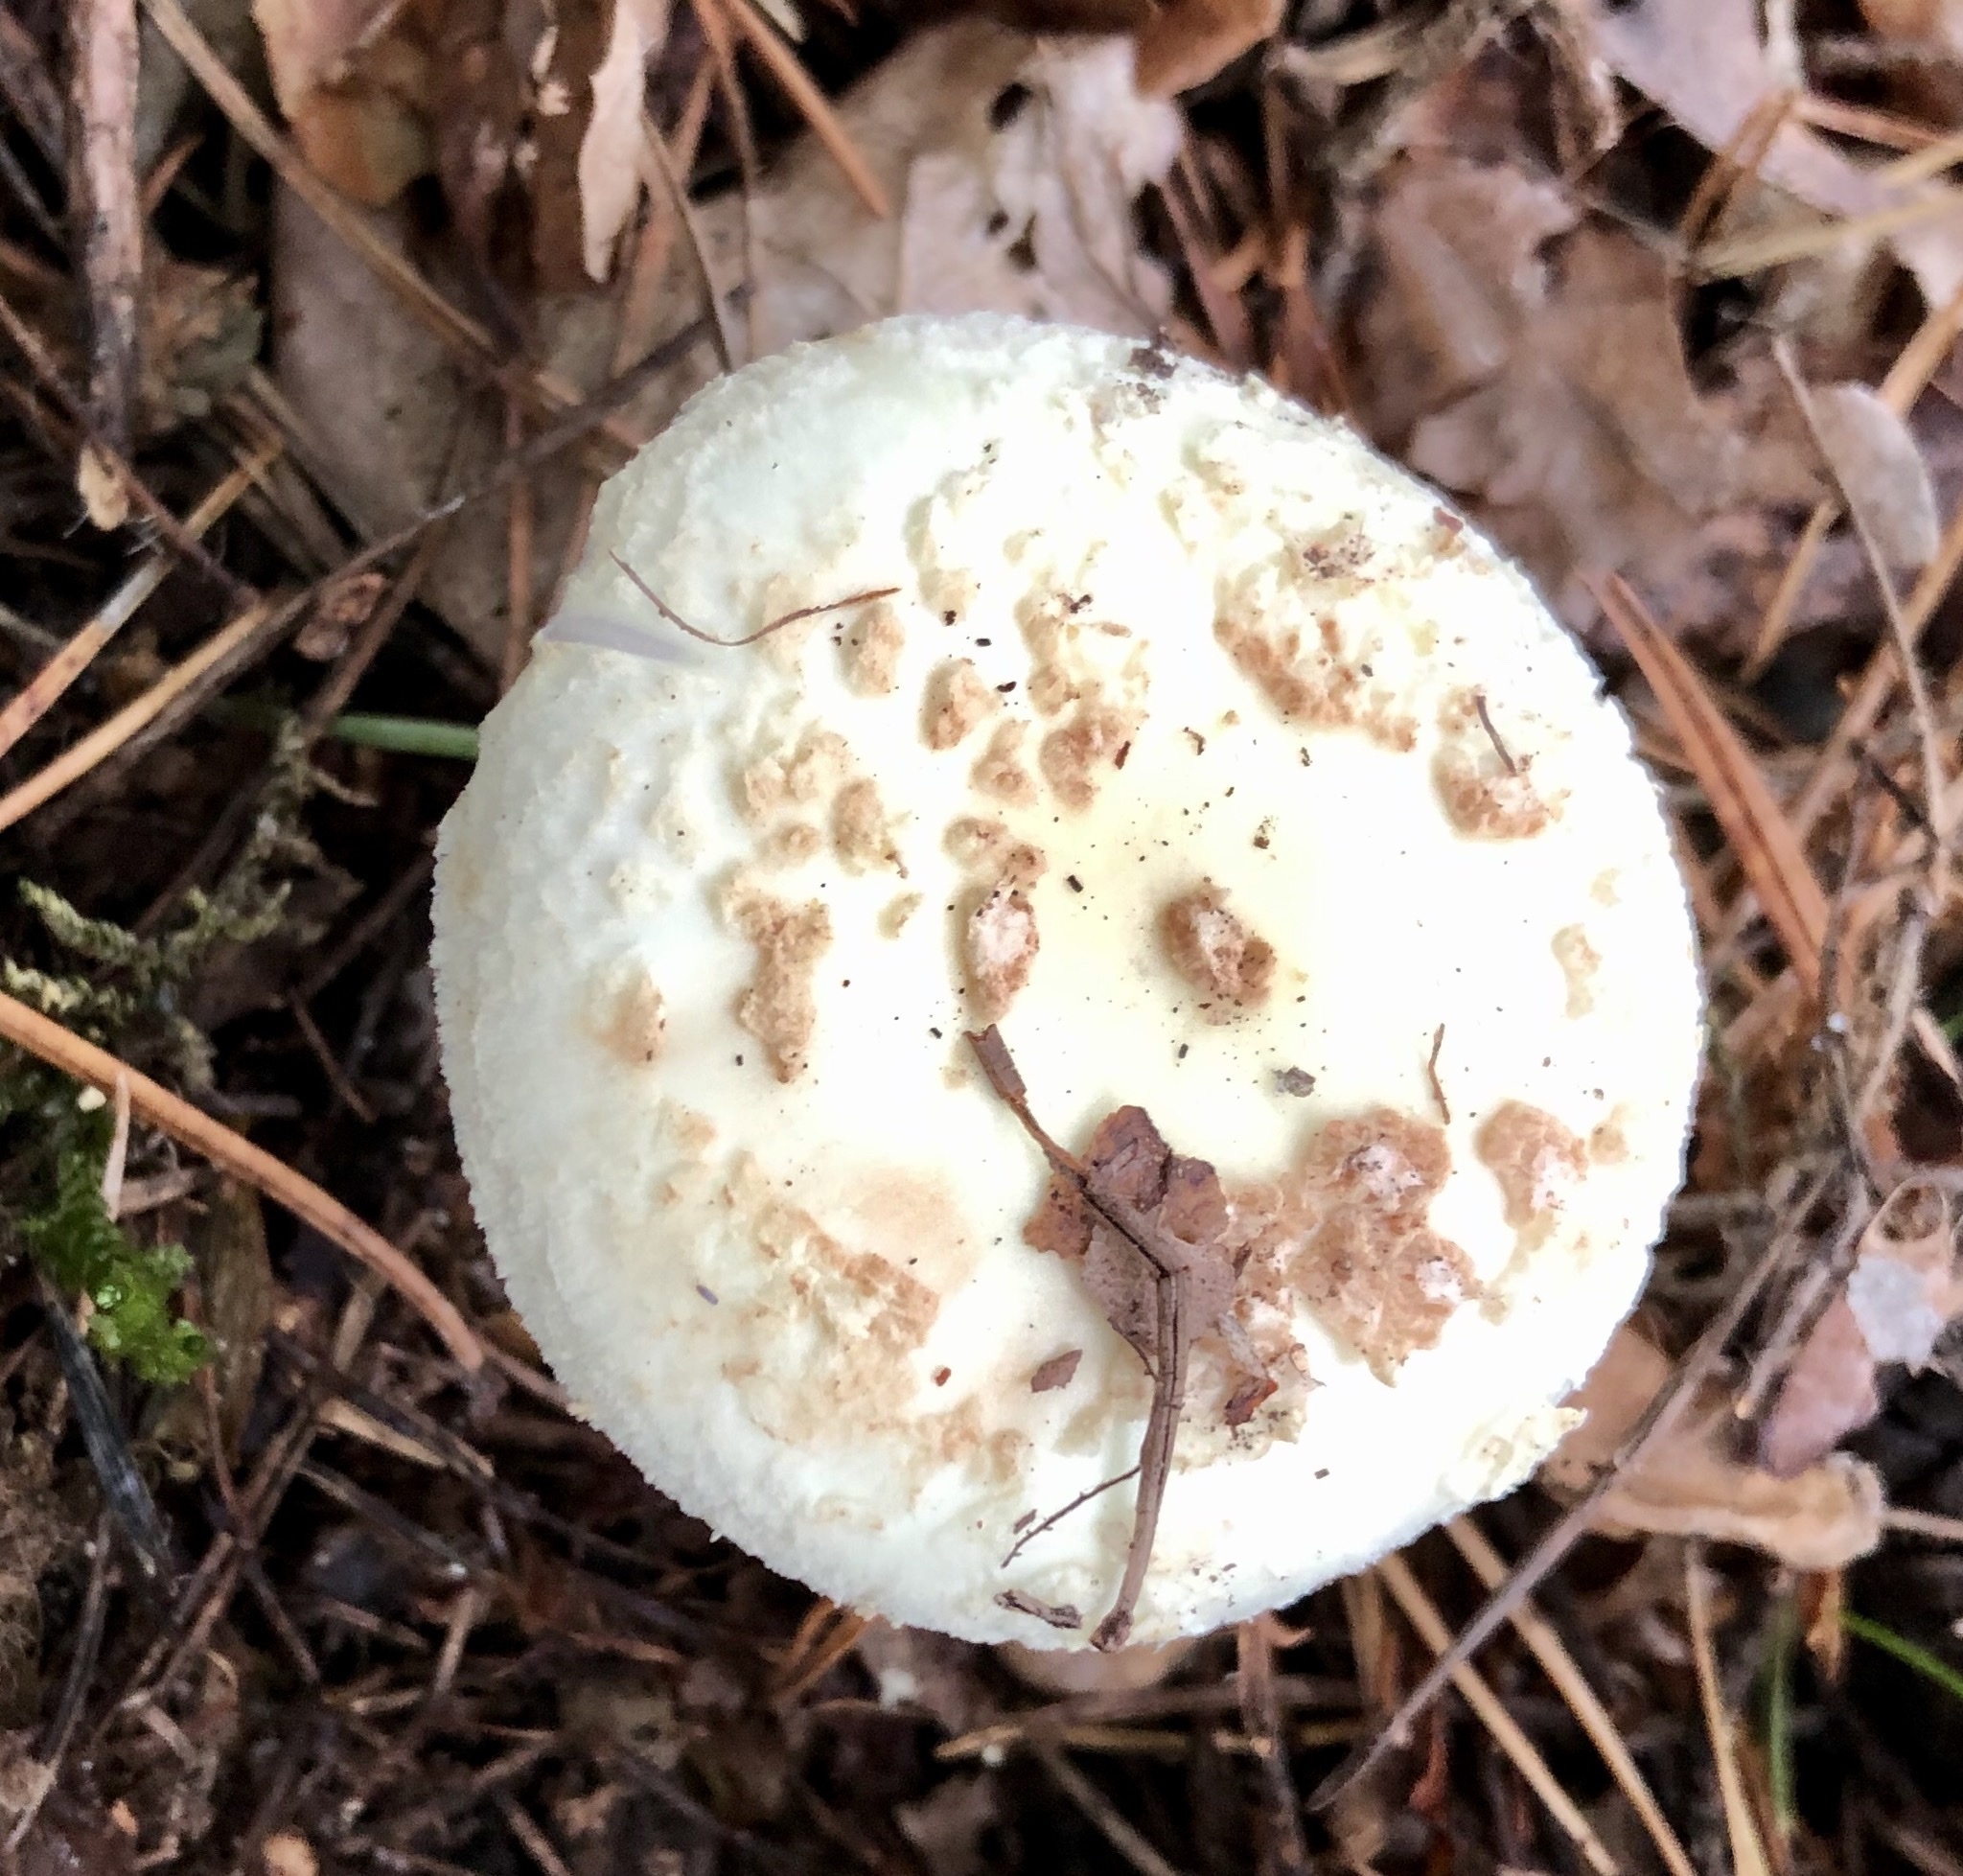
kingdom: Fungi
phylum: Basidiomycota
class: Agaricomycetes
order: Agaricales
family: Amanitaceae
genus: Amanita
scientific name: Amanita citrina
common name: False death-cap
